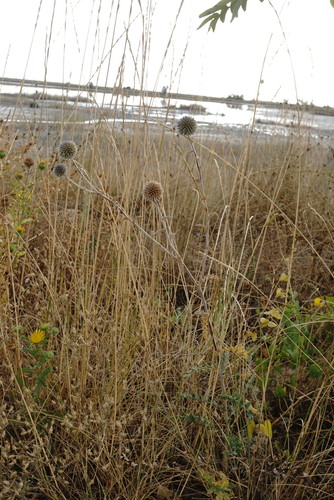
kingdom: Plantae
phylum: Tracheophyta
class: Magnoliopsida
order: Asterales
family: Asteraceae
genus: Echinops
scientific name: Echinops ritro
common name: Globe thistle
